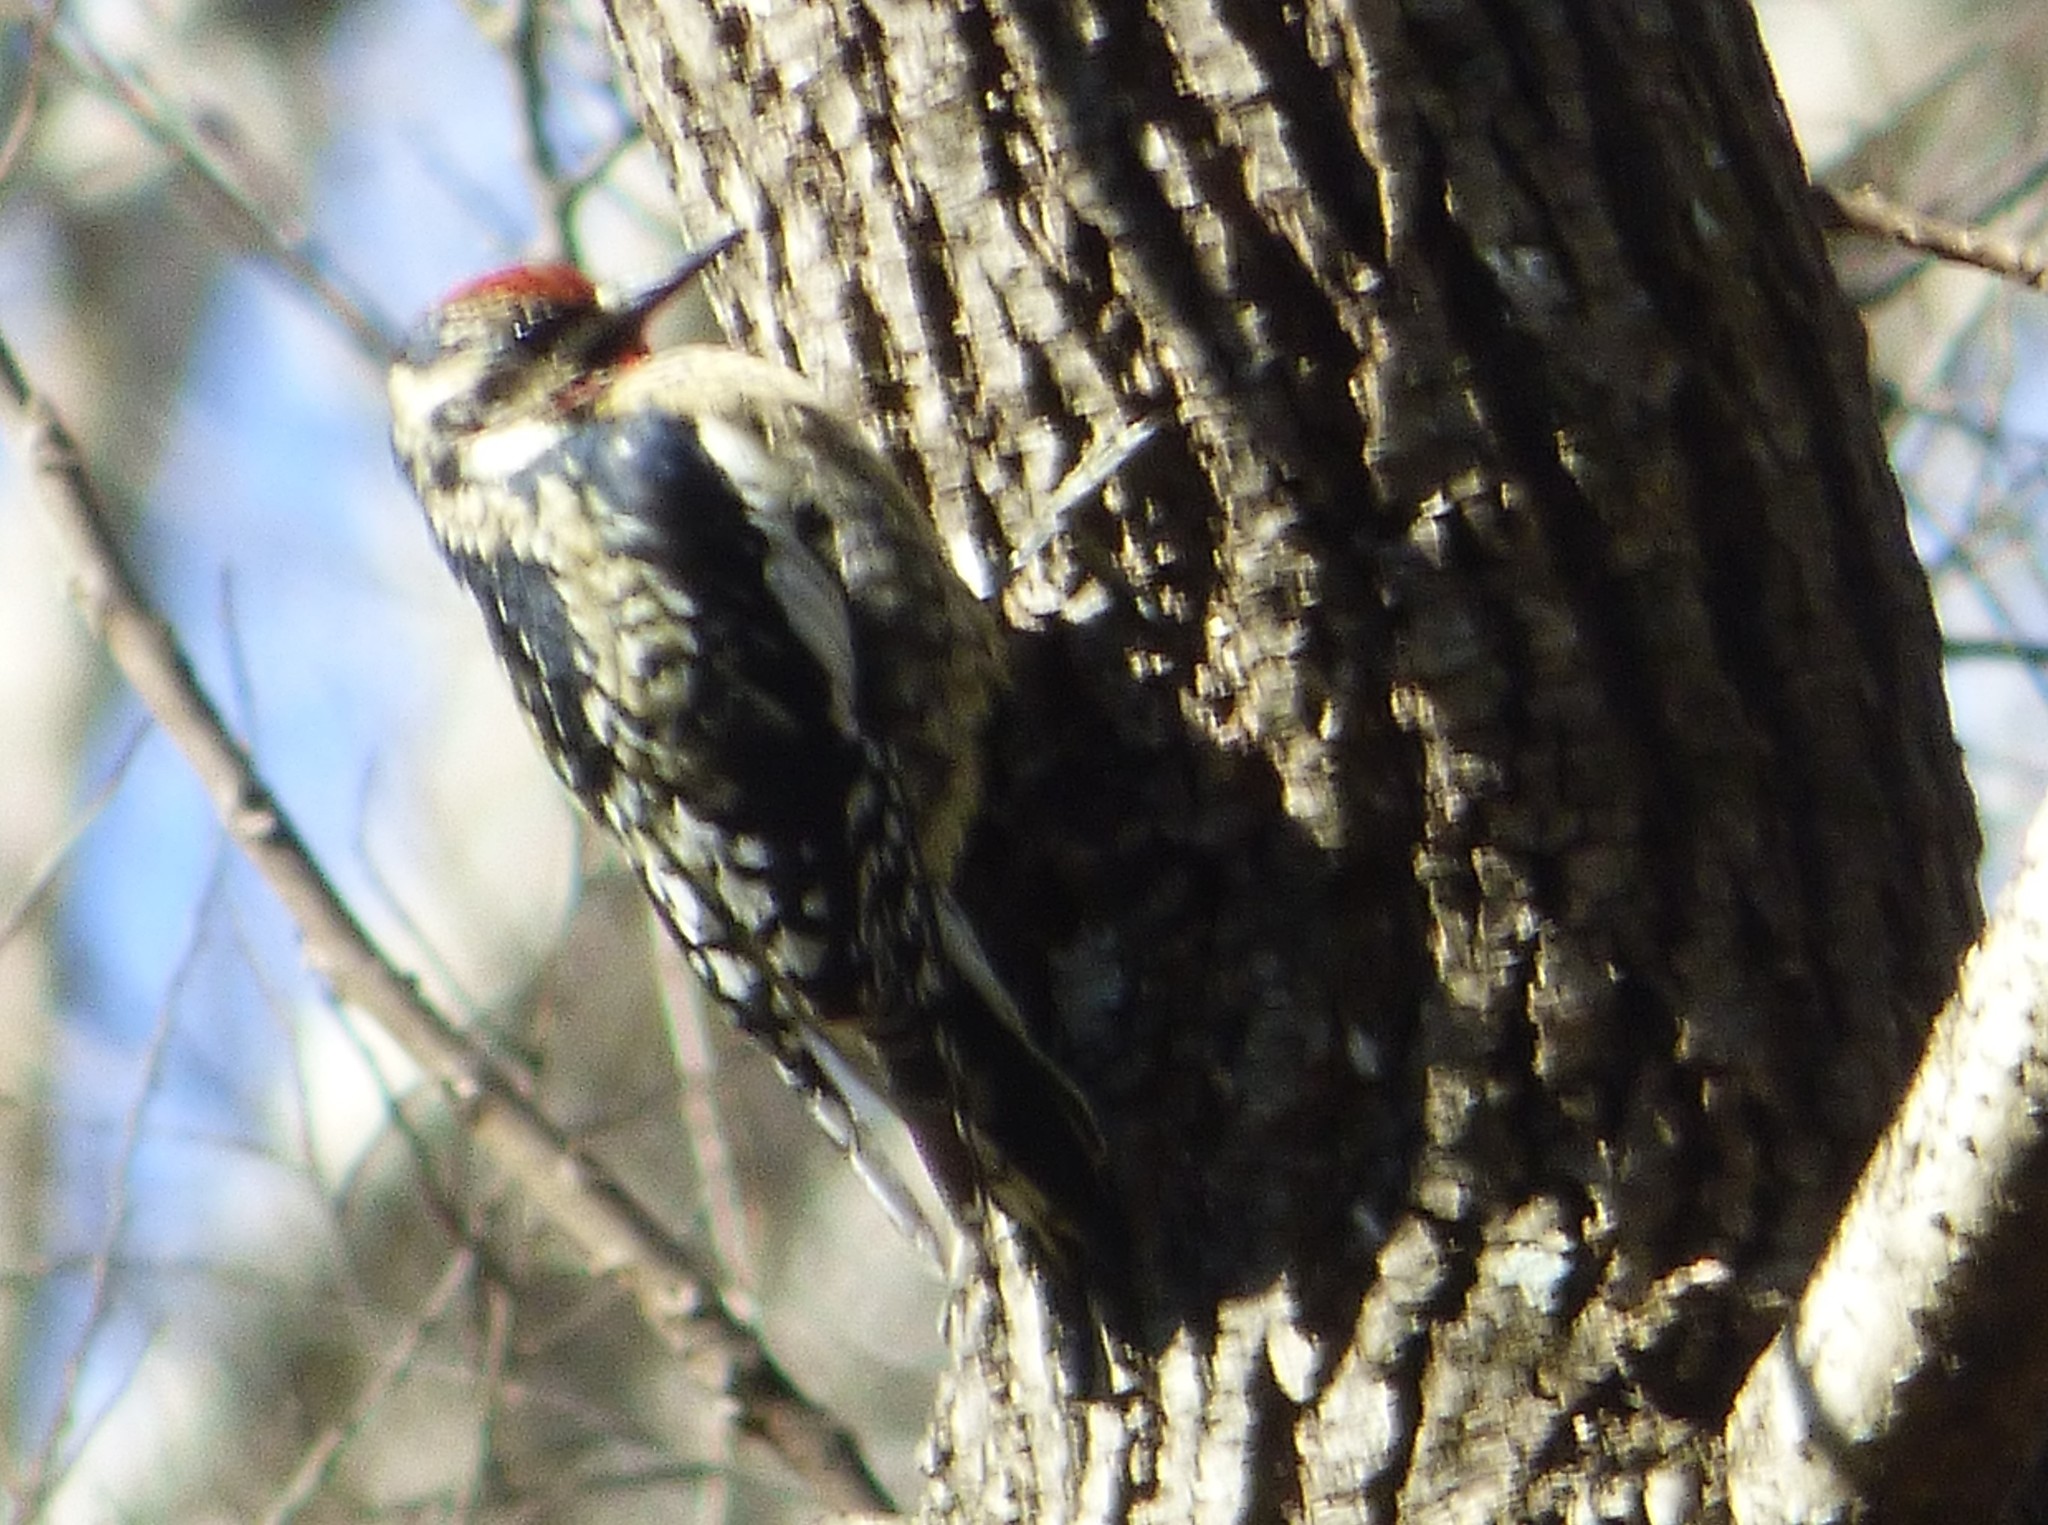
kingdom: Animalia
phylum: Chordata
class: Aves
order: Piciformes
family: Picidae
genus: Sphyrapicus
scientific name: Sphyrapicus varius
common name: Yellow-bellied sapsucker
